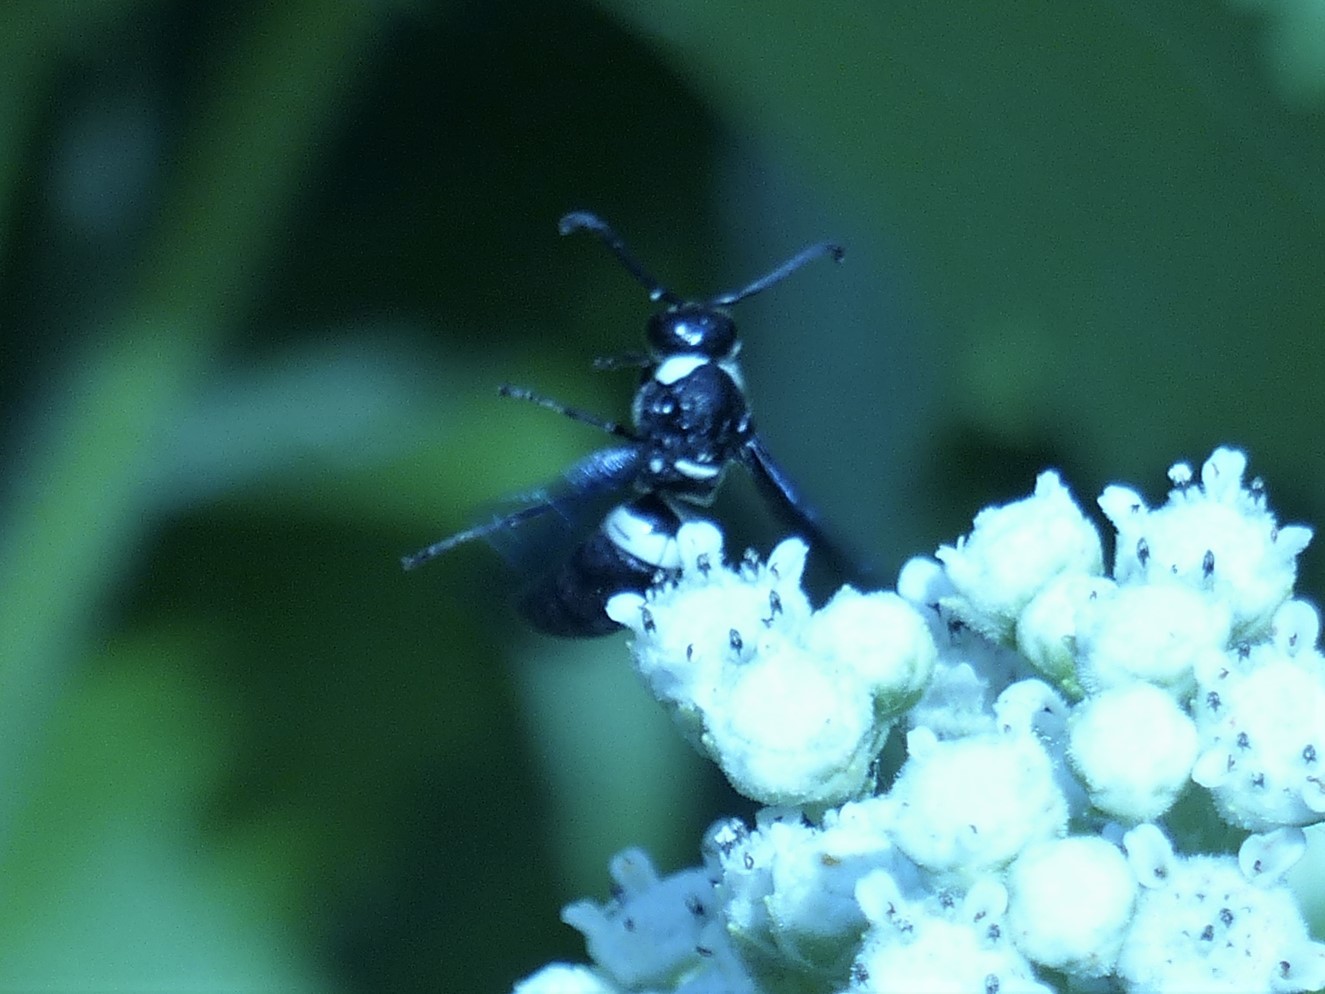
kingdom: Animalia
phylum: Arthropoda
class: Insecta
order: Hymenoptera
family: Eumenidae
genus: Monobia
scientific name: Monobia quadridens
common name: Four-toothed mason wasp
